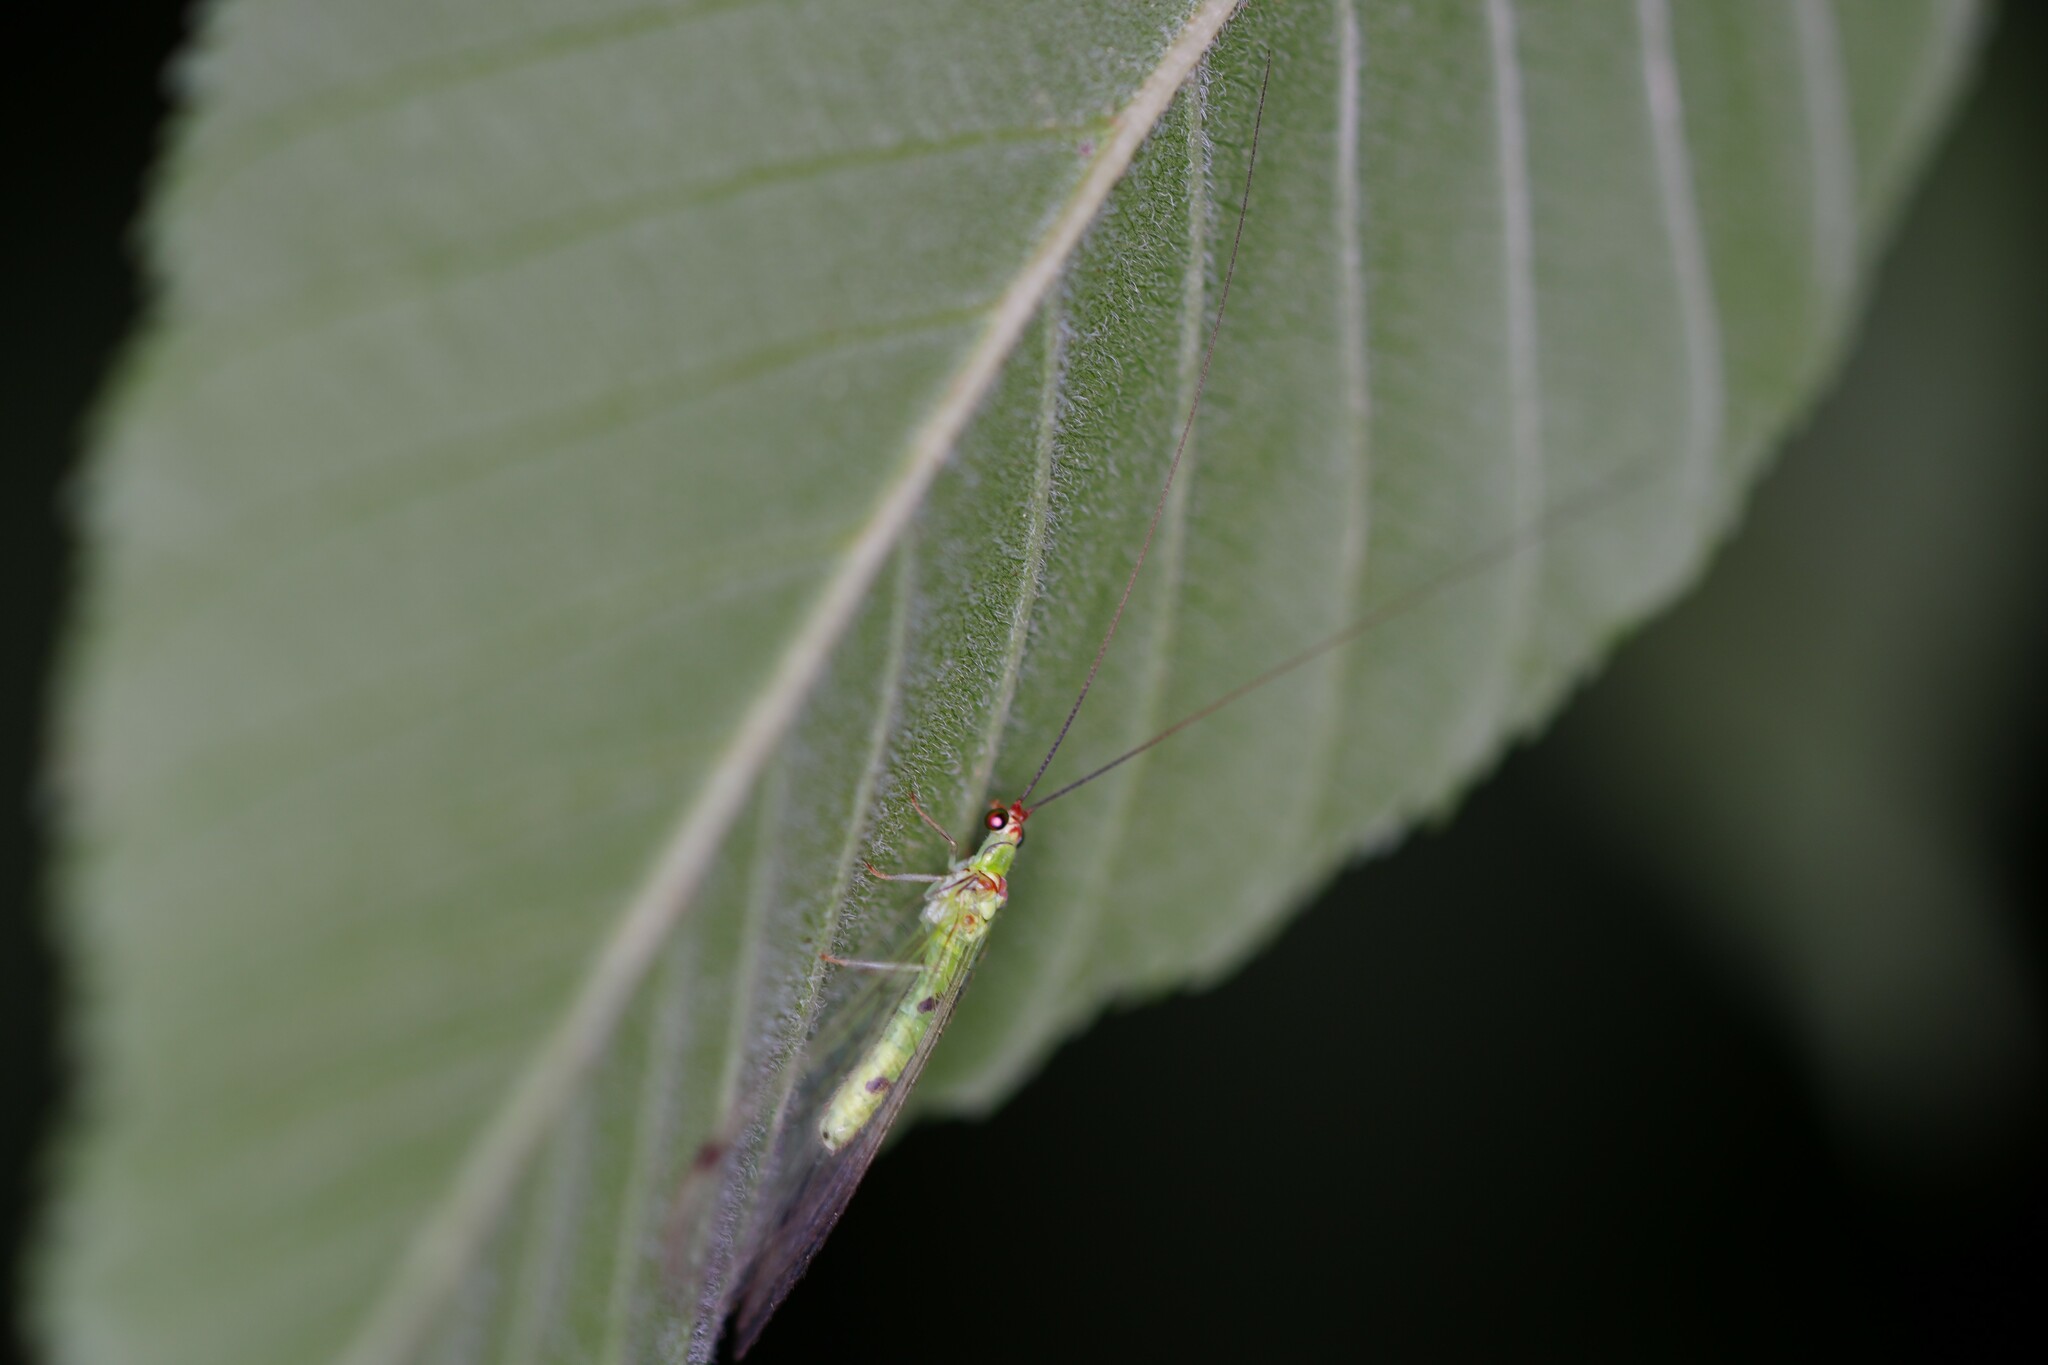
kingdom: Animalia
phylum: Arthropoda
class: Insecta
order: Neuroptera
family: Chrysopidae
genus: Leucochrysa
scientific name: Leucochrysa explorata
